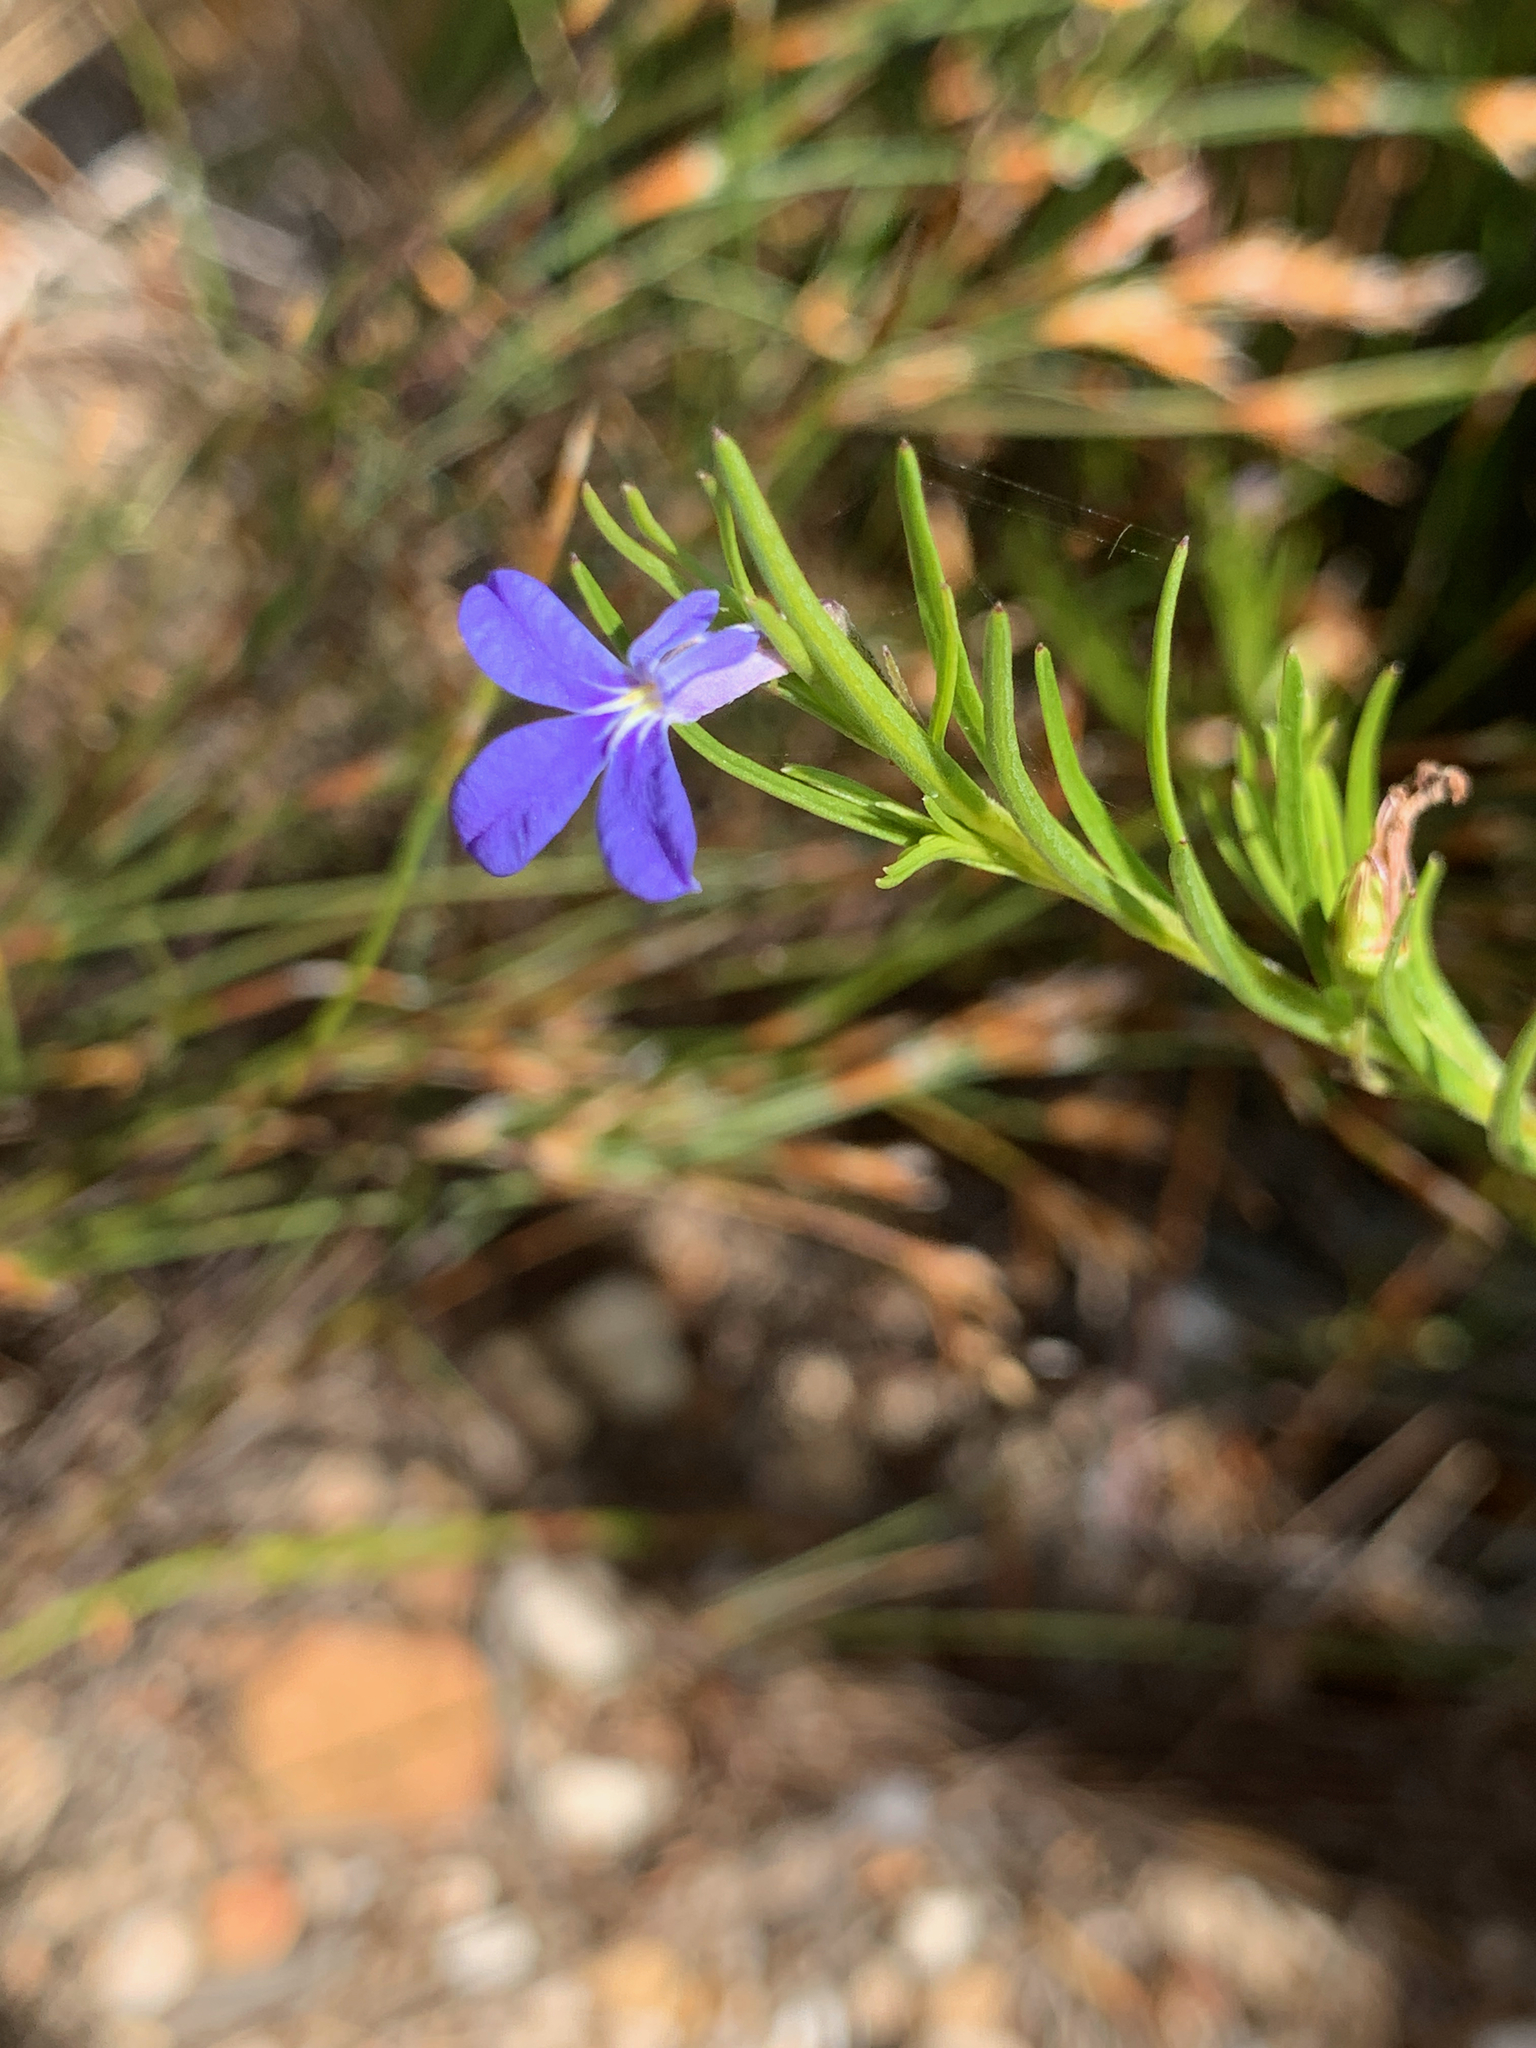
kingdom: Plantae
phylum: Tracheophyta
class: Magnoliopsida
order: Asterales
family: Campanulaceae
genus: Lobelia
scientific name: Lobelia pinifolia
